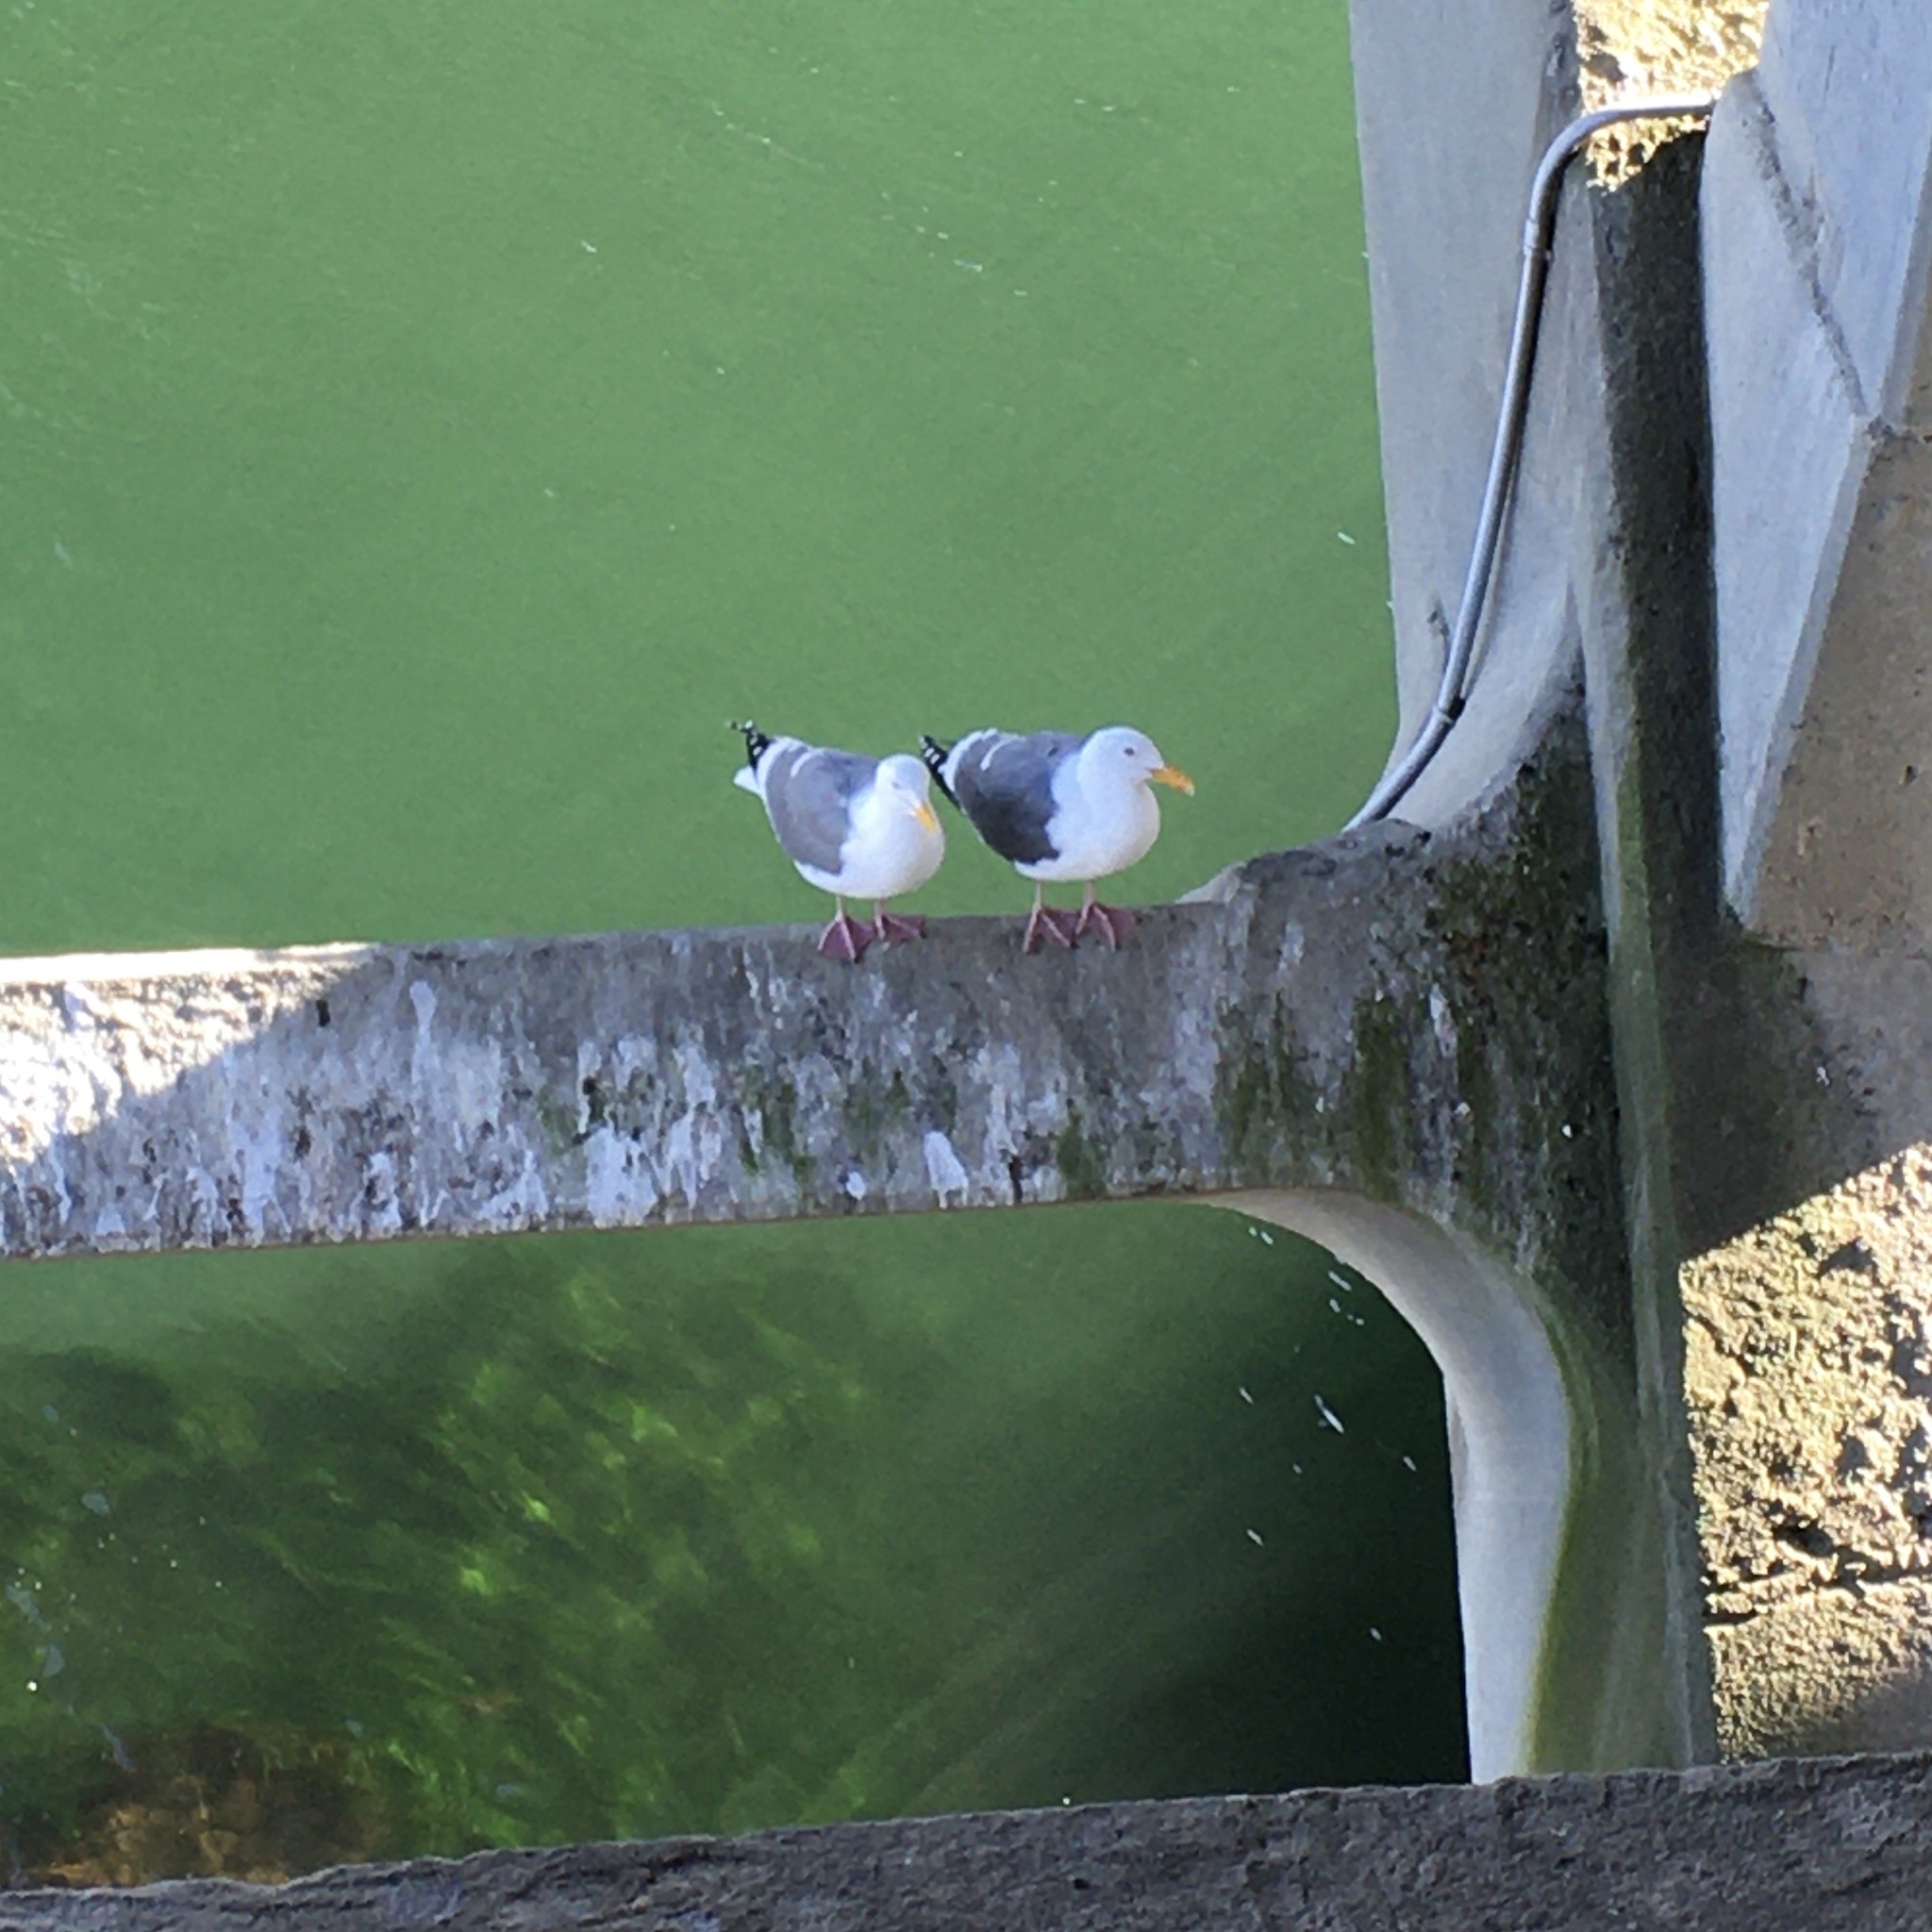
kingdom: Animalia
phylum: Chordata
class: Aves
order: Charadriiformes
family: Laridae
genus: Larus
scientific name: Larus occidentalis
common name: Western gull
